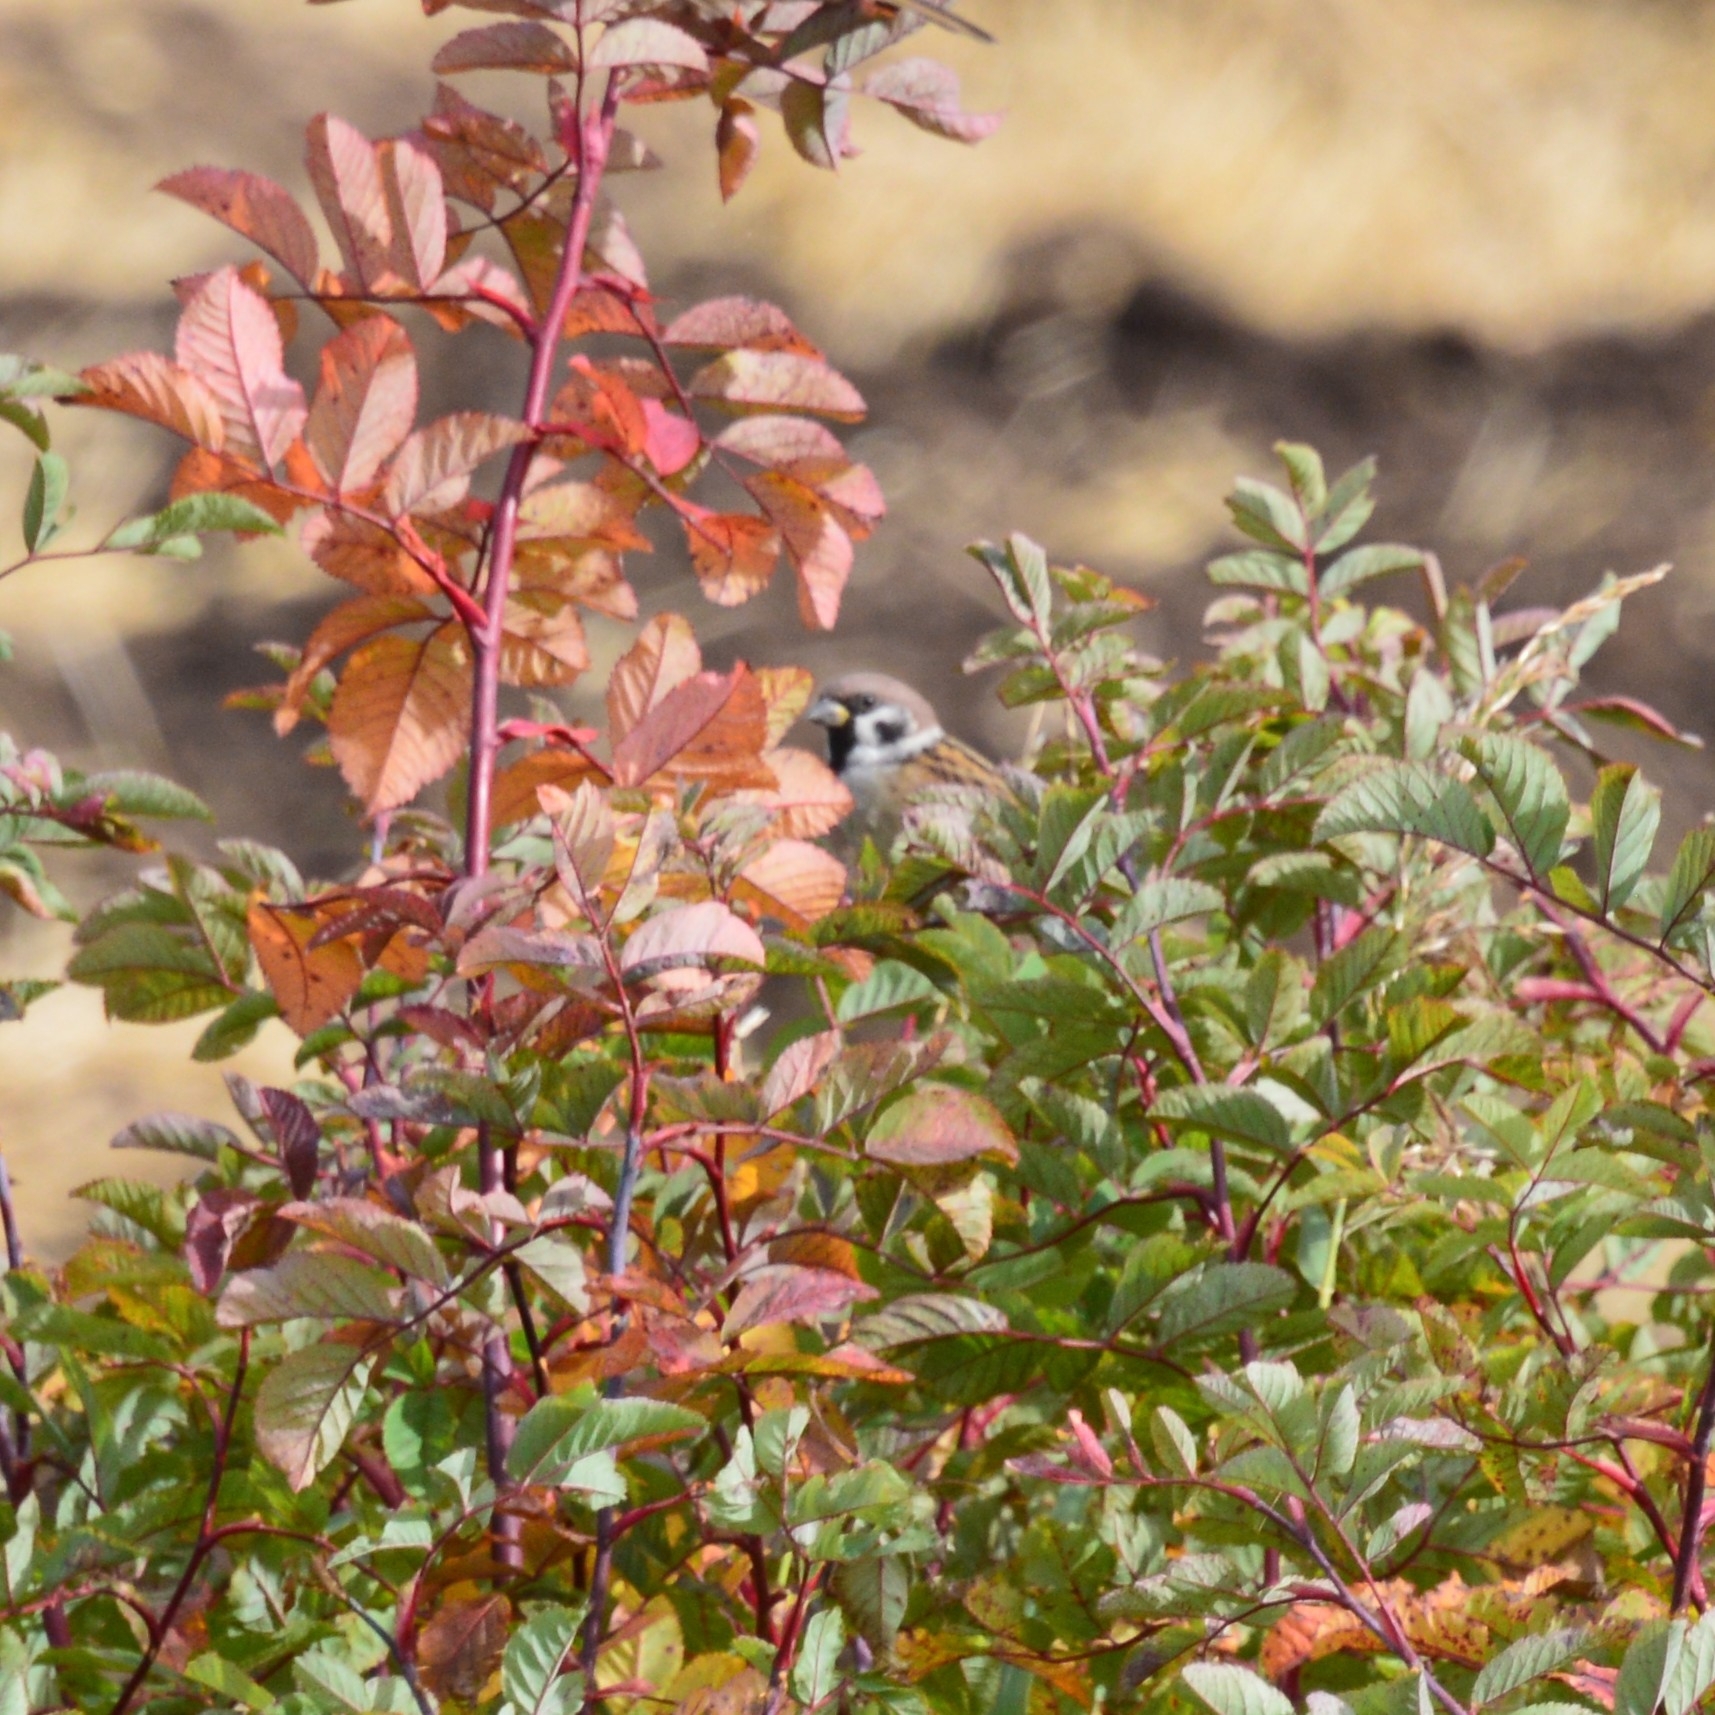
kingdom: Animalia
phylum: Chordata
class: Aves
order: Passeriformes
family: Passeridae
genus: Passer
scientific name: Passer montanus
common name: Eurasian tree sparrow
